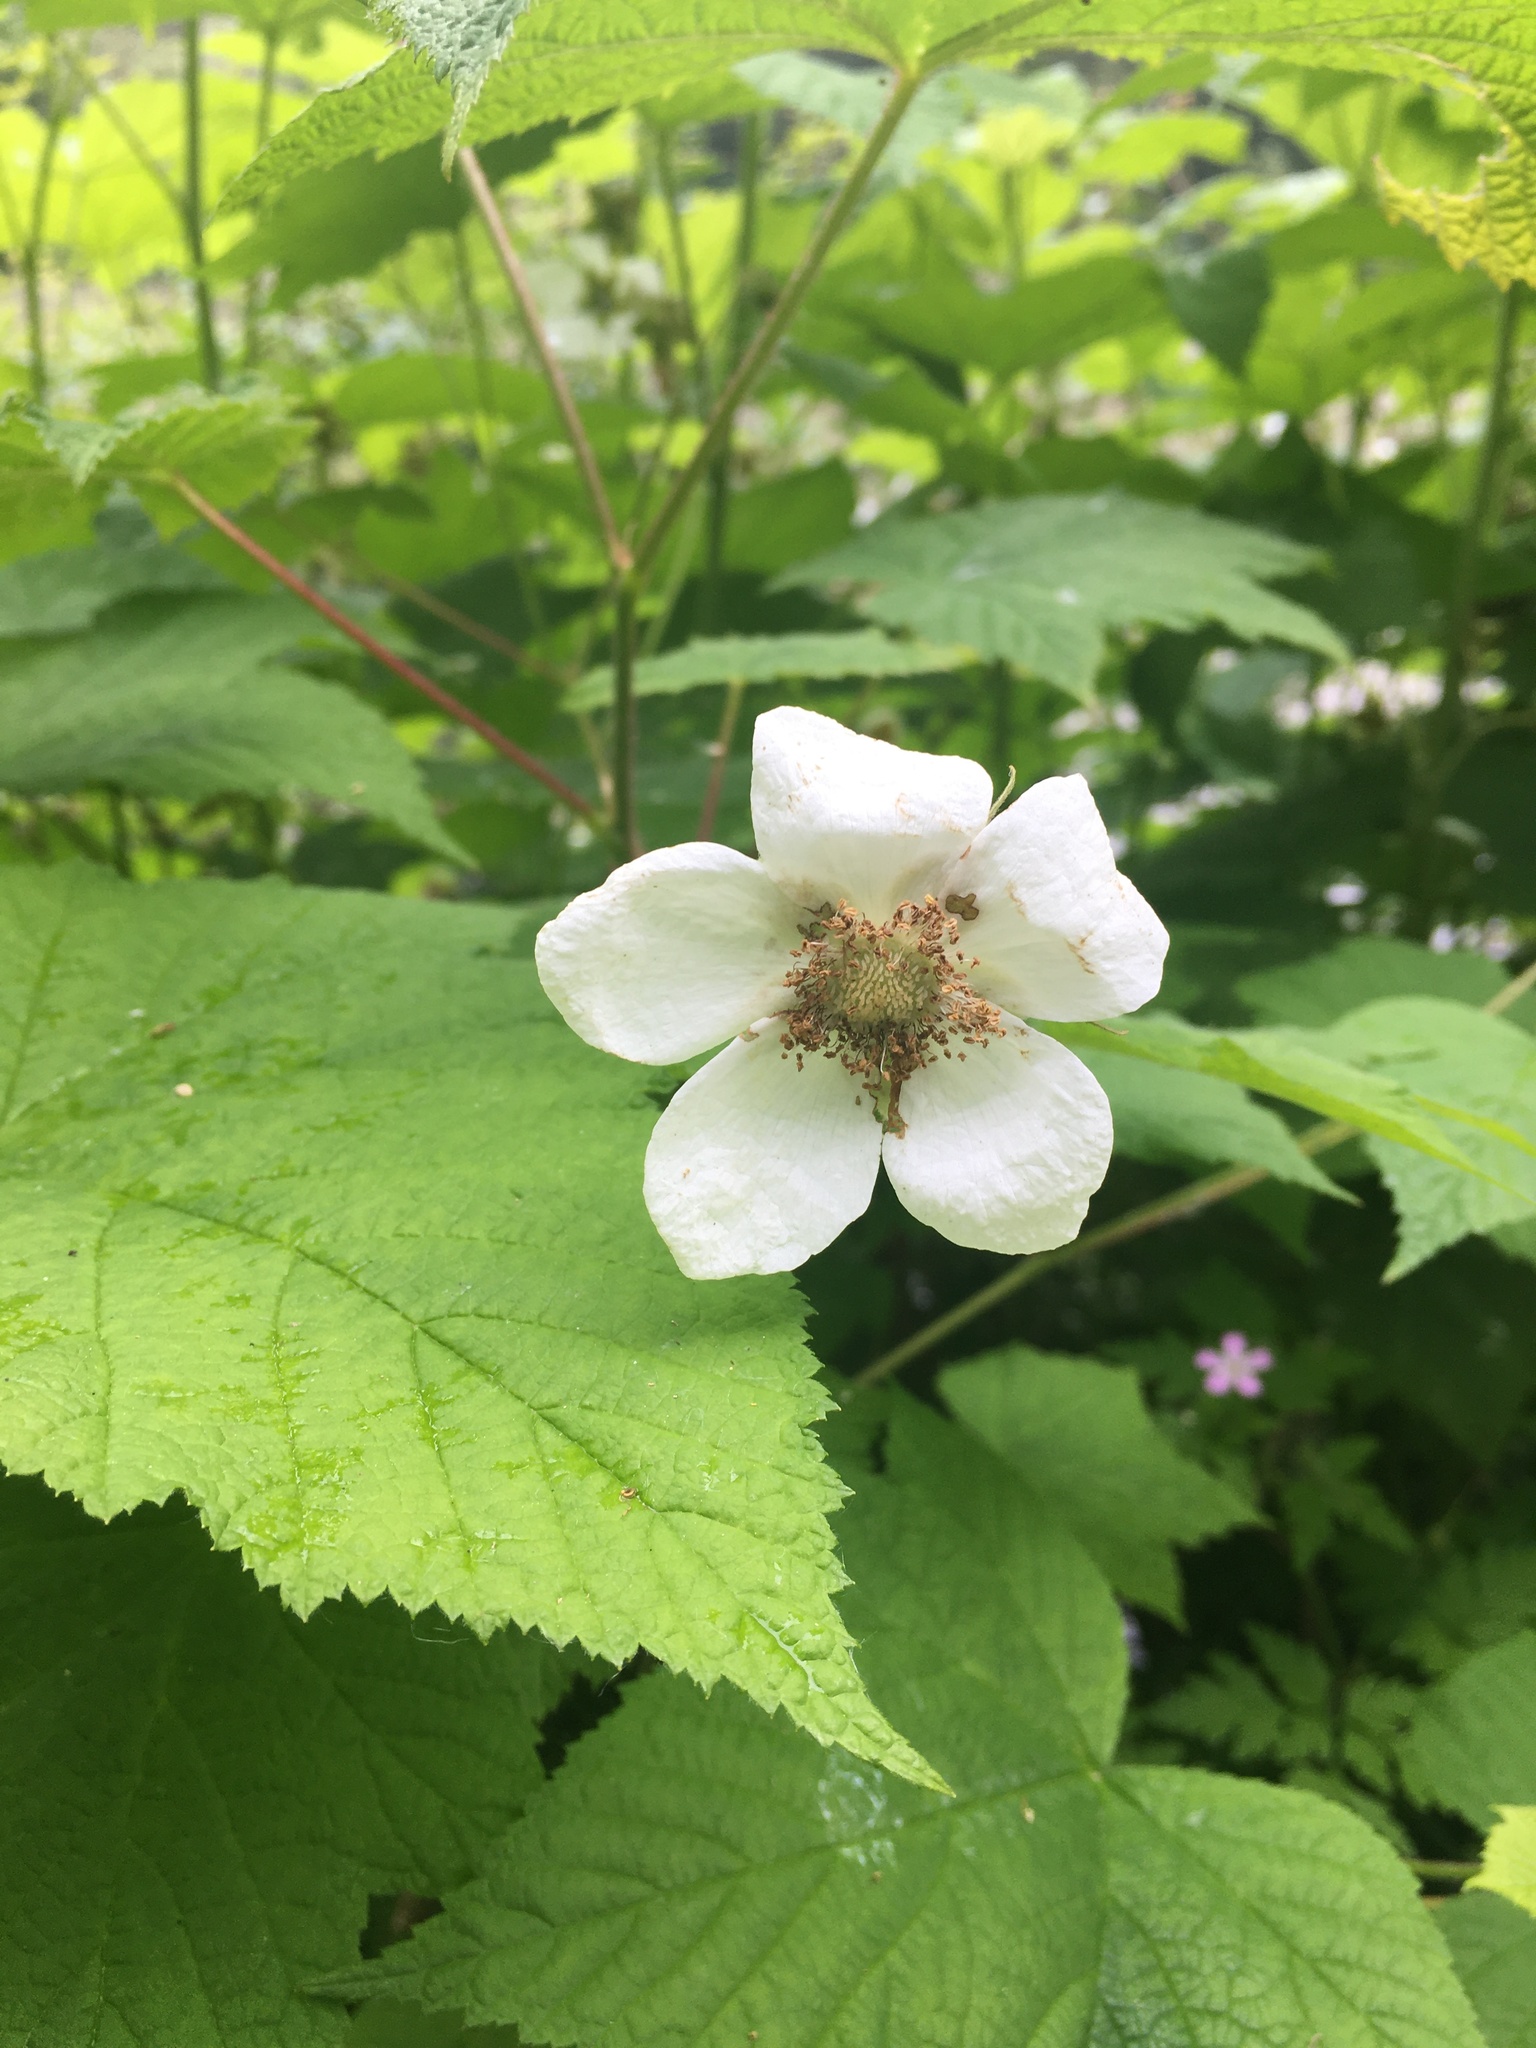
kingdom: Plantae
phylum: Tracheophyta
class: Magnoliopsida
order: Rosales
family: Rosaceae
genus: Rubus
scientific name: Rubus parviflorus
